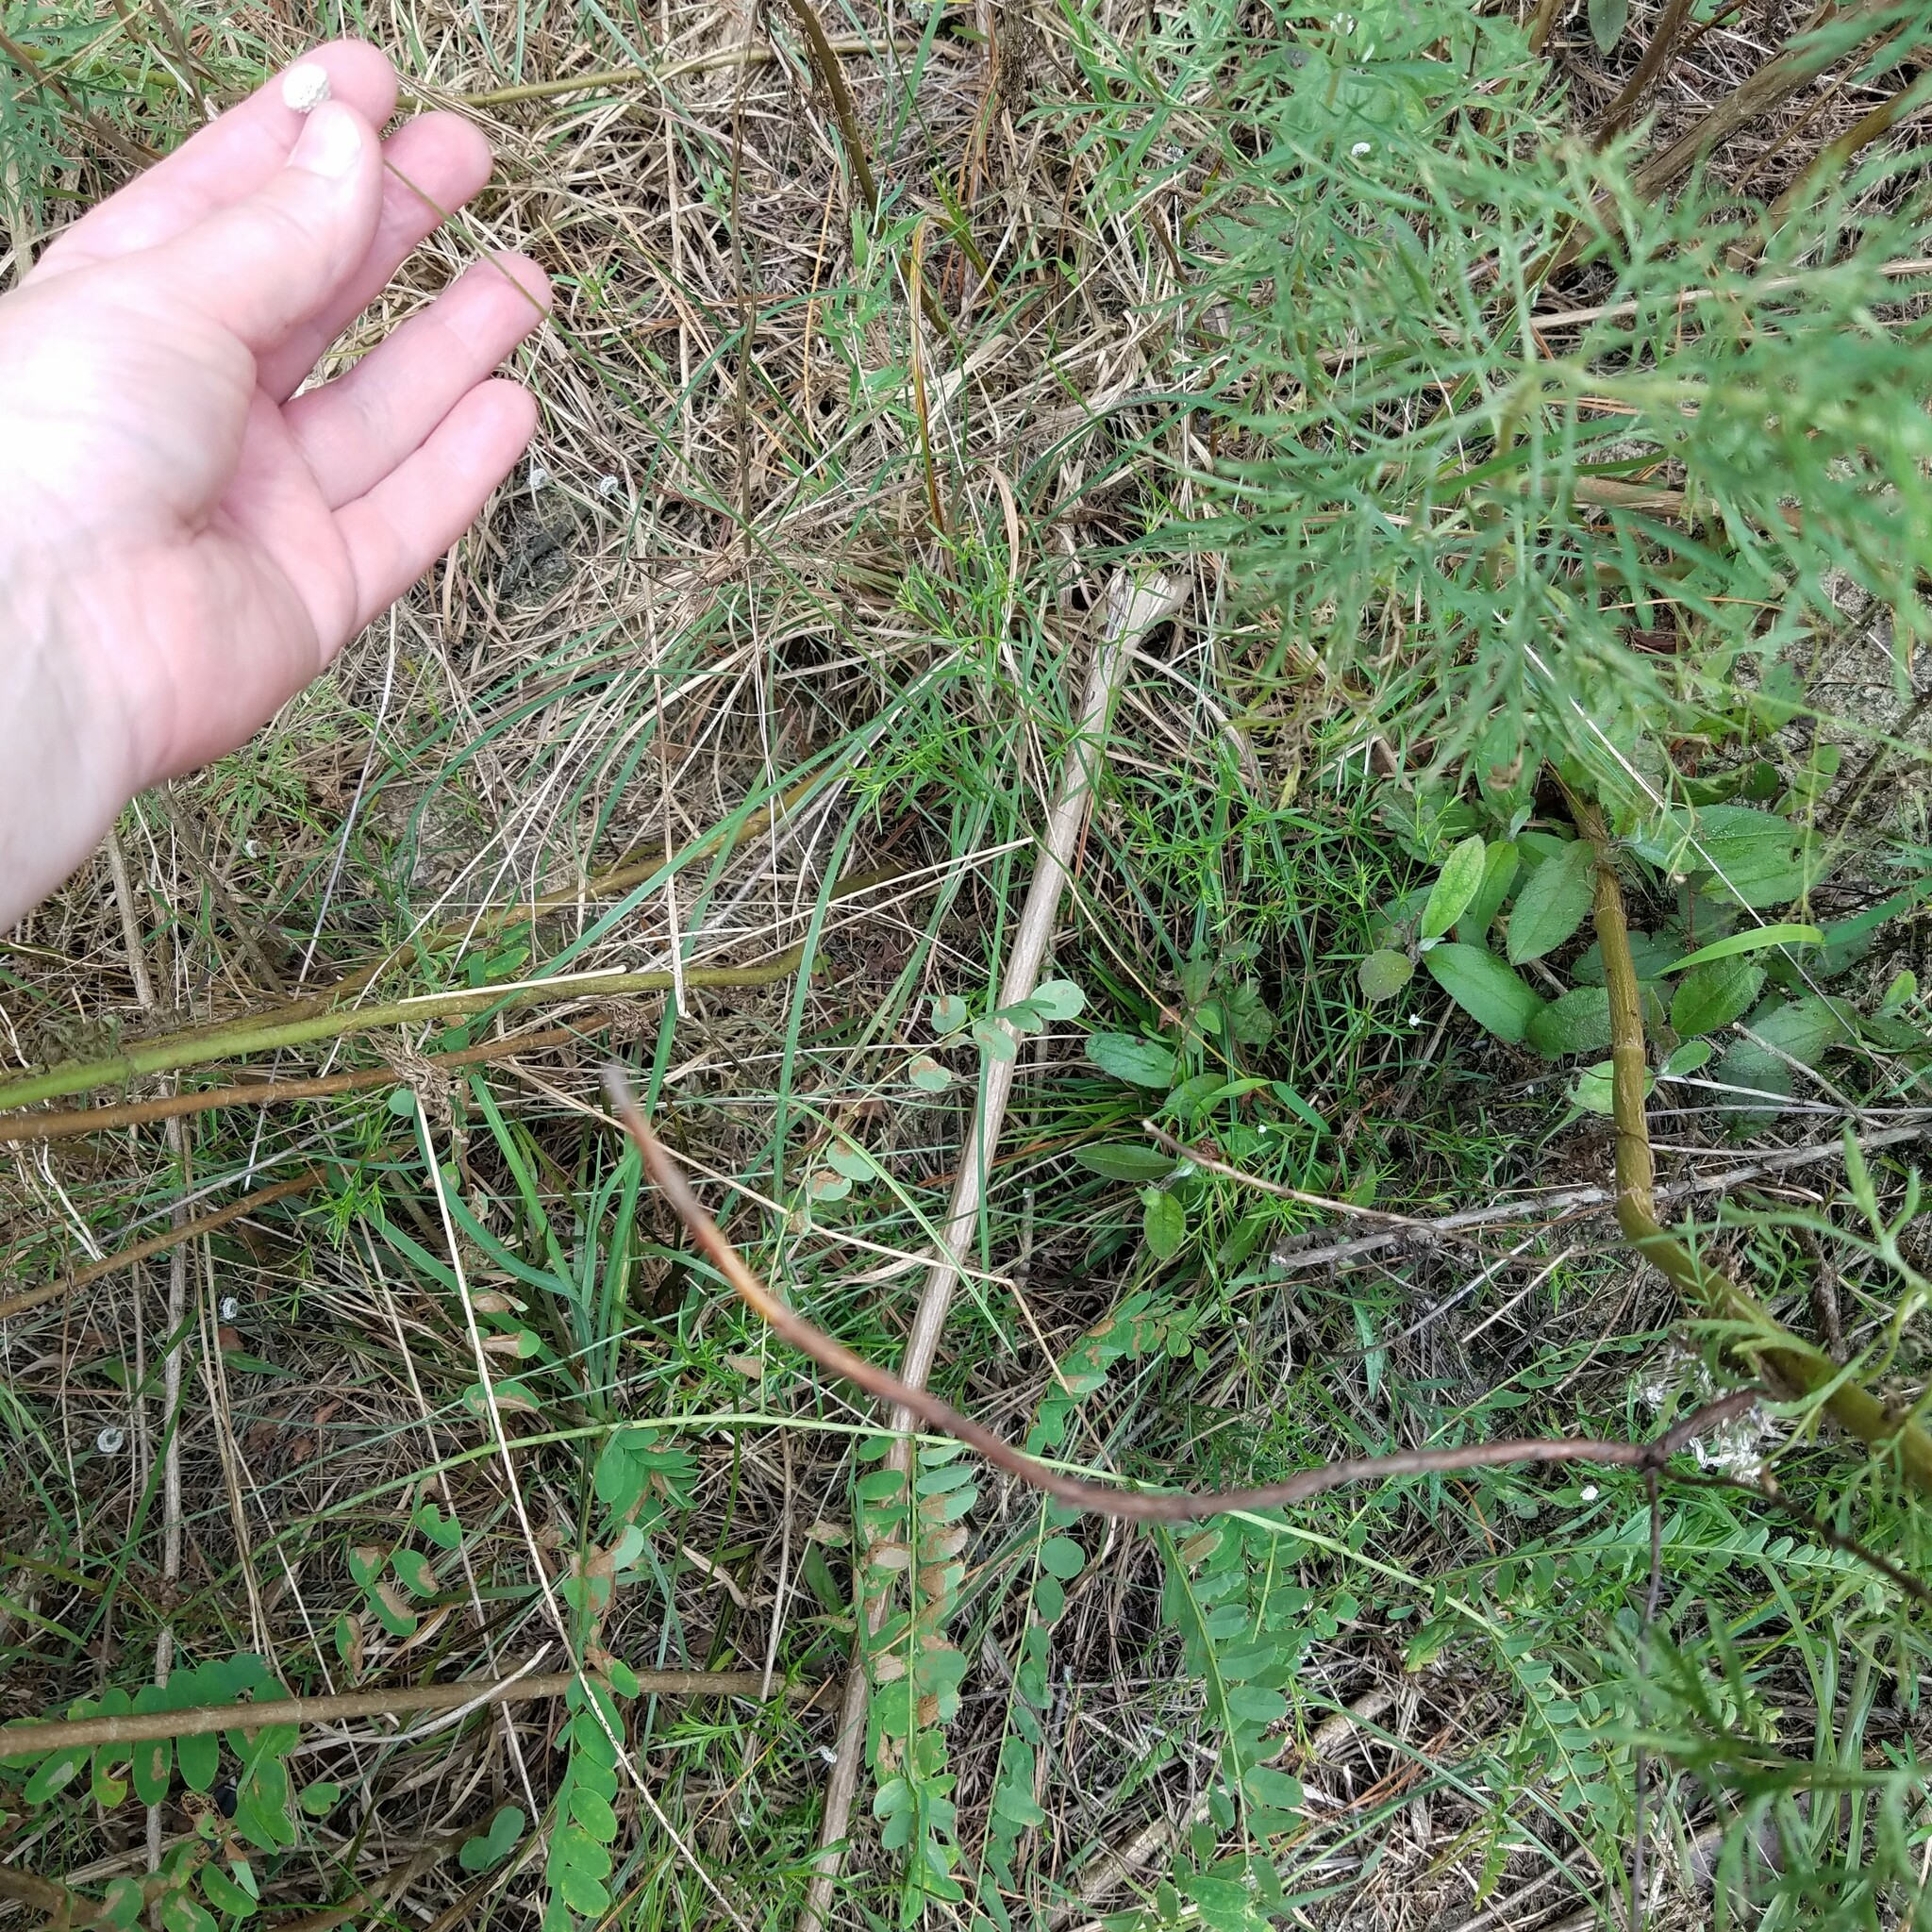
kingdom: Plantae
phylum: Tracheophyta
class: Liliopsida
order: Poales
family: Eriocaulaceae
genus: Paepalanthus
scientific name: Paepalanthus anceps
